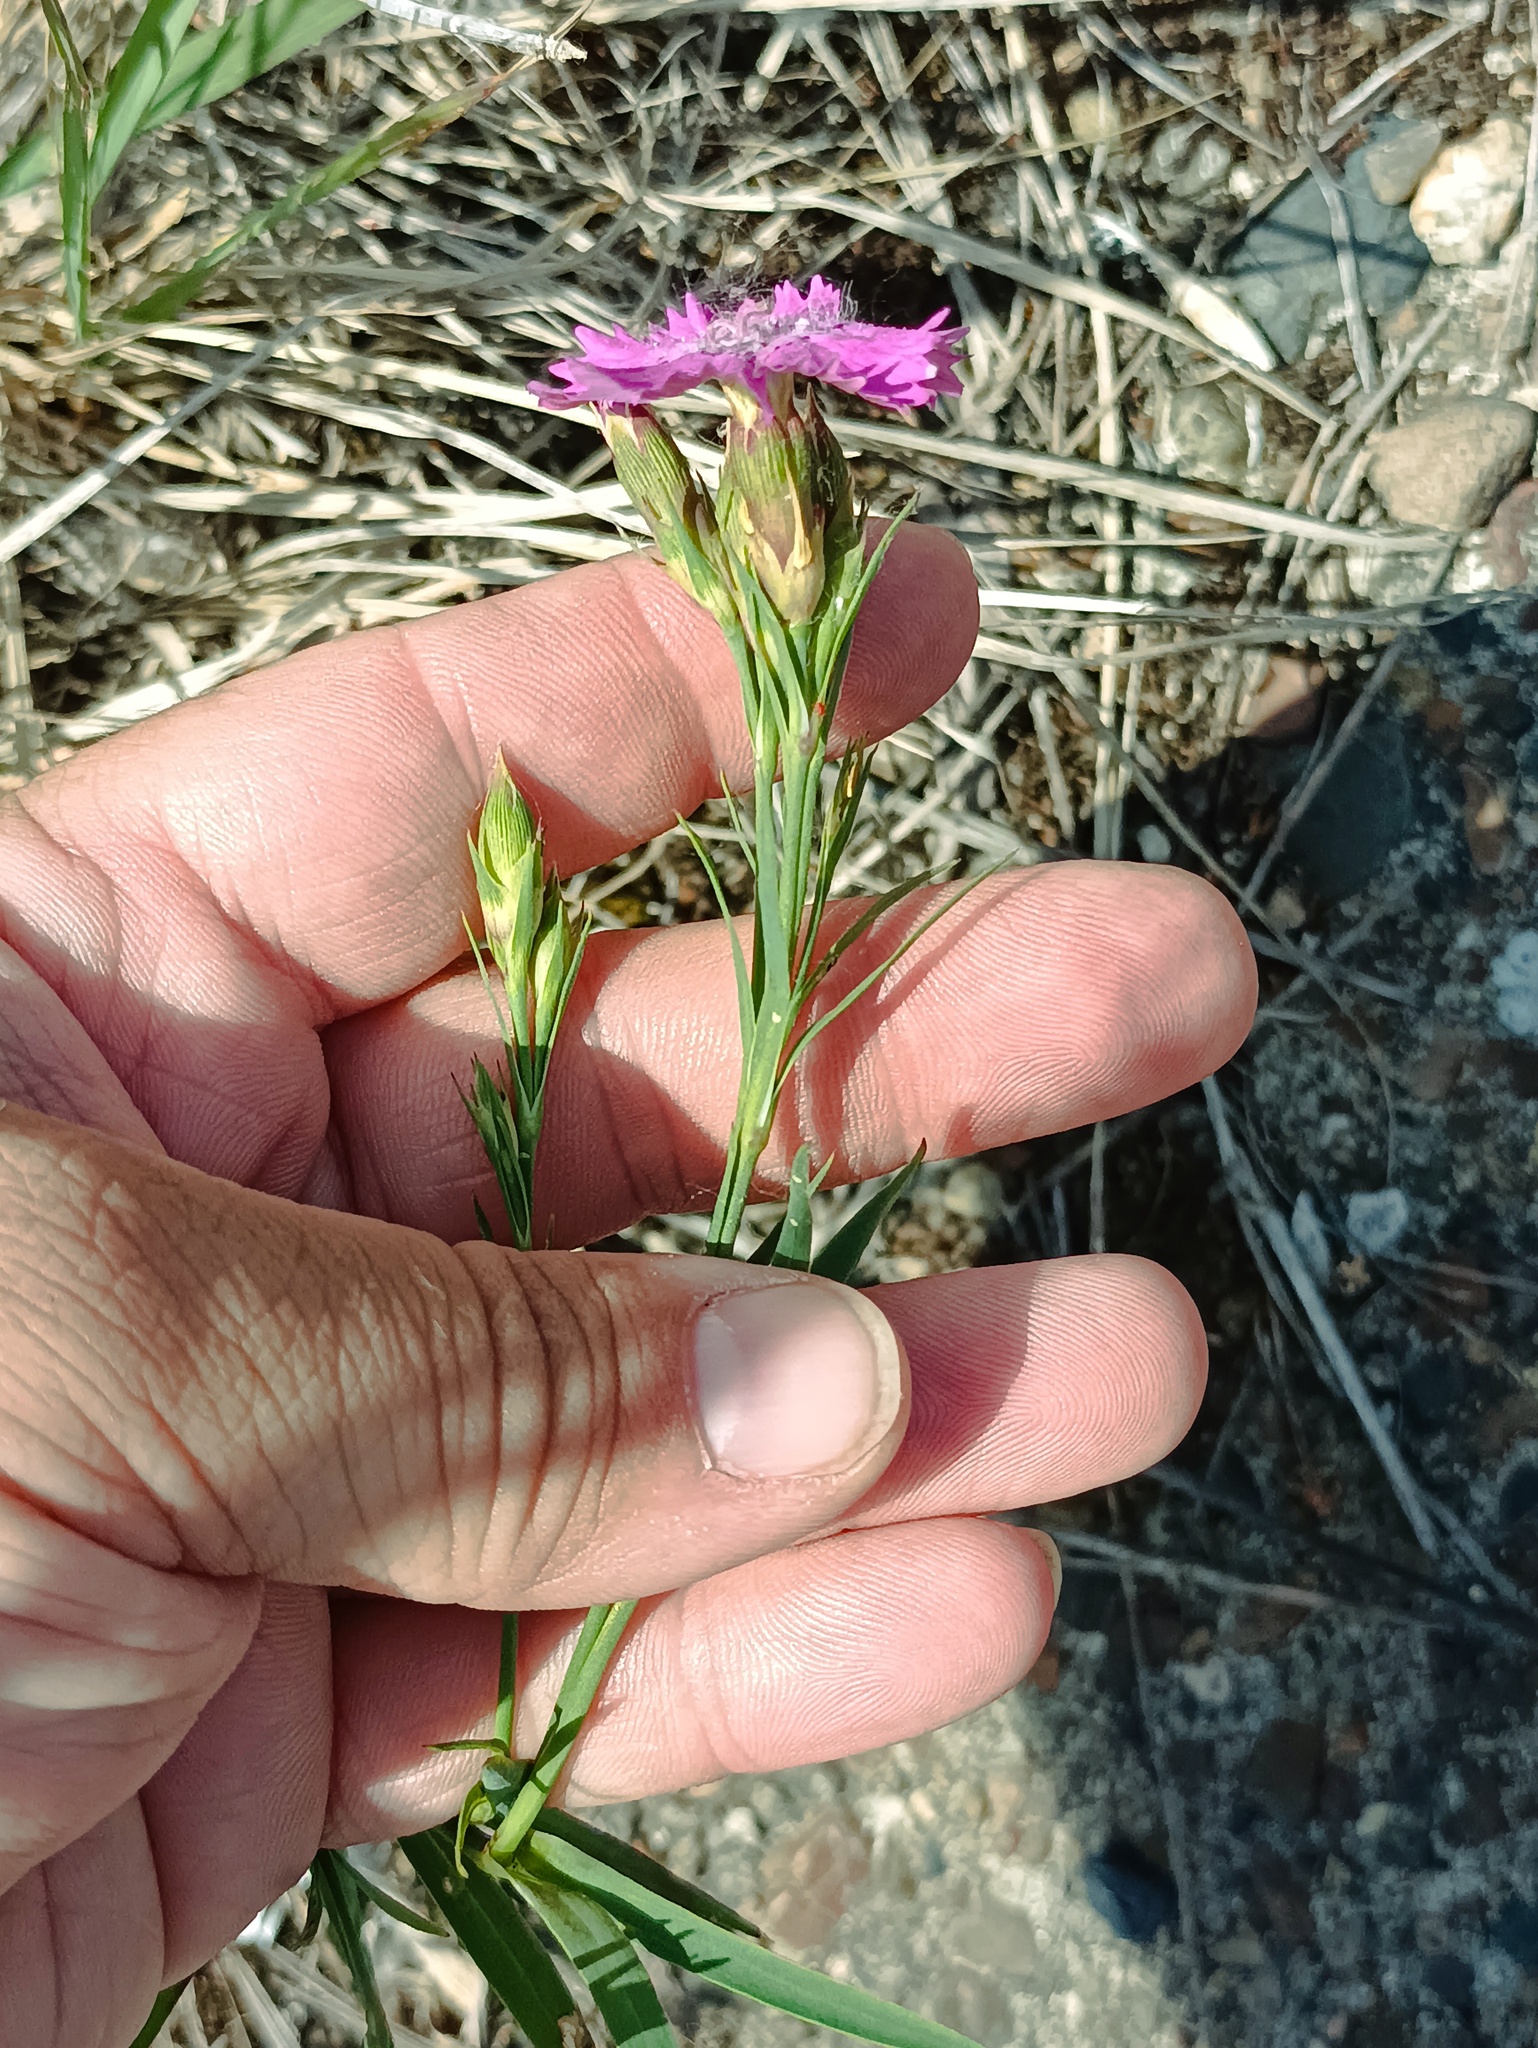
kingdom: Plantae
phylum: Tracheophyta
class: Magnoliopsida
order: Caryophyllales
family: Caryophyllaceae
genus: Dianthus
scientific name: Dianthus chinensis
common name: Rainbow pink
